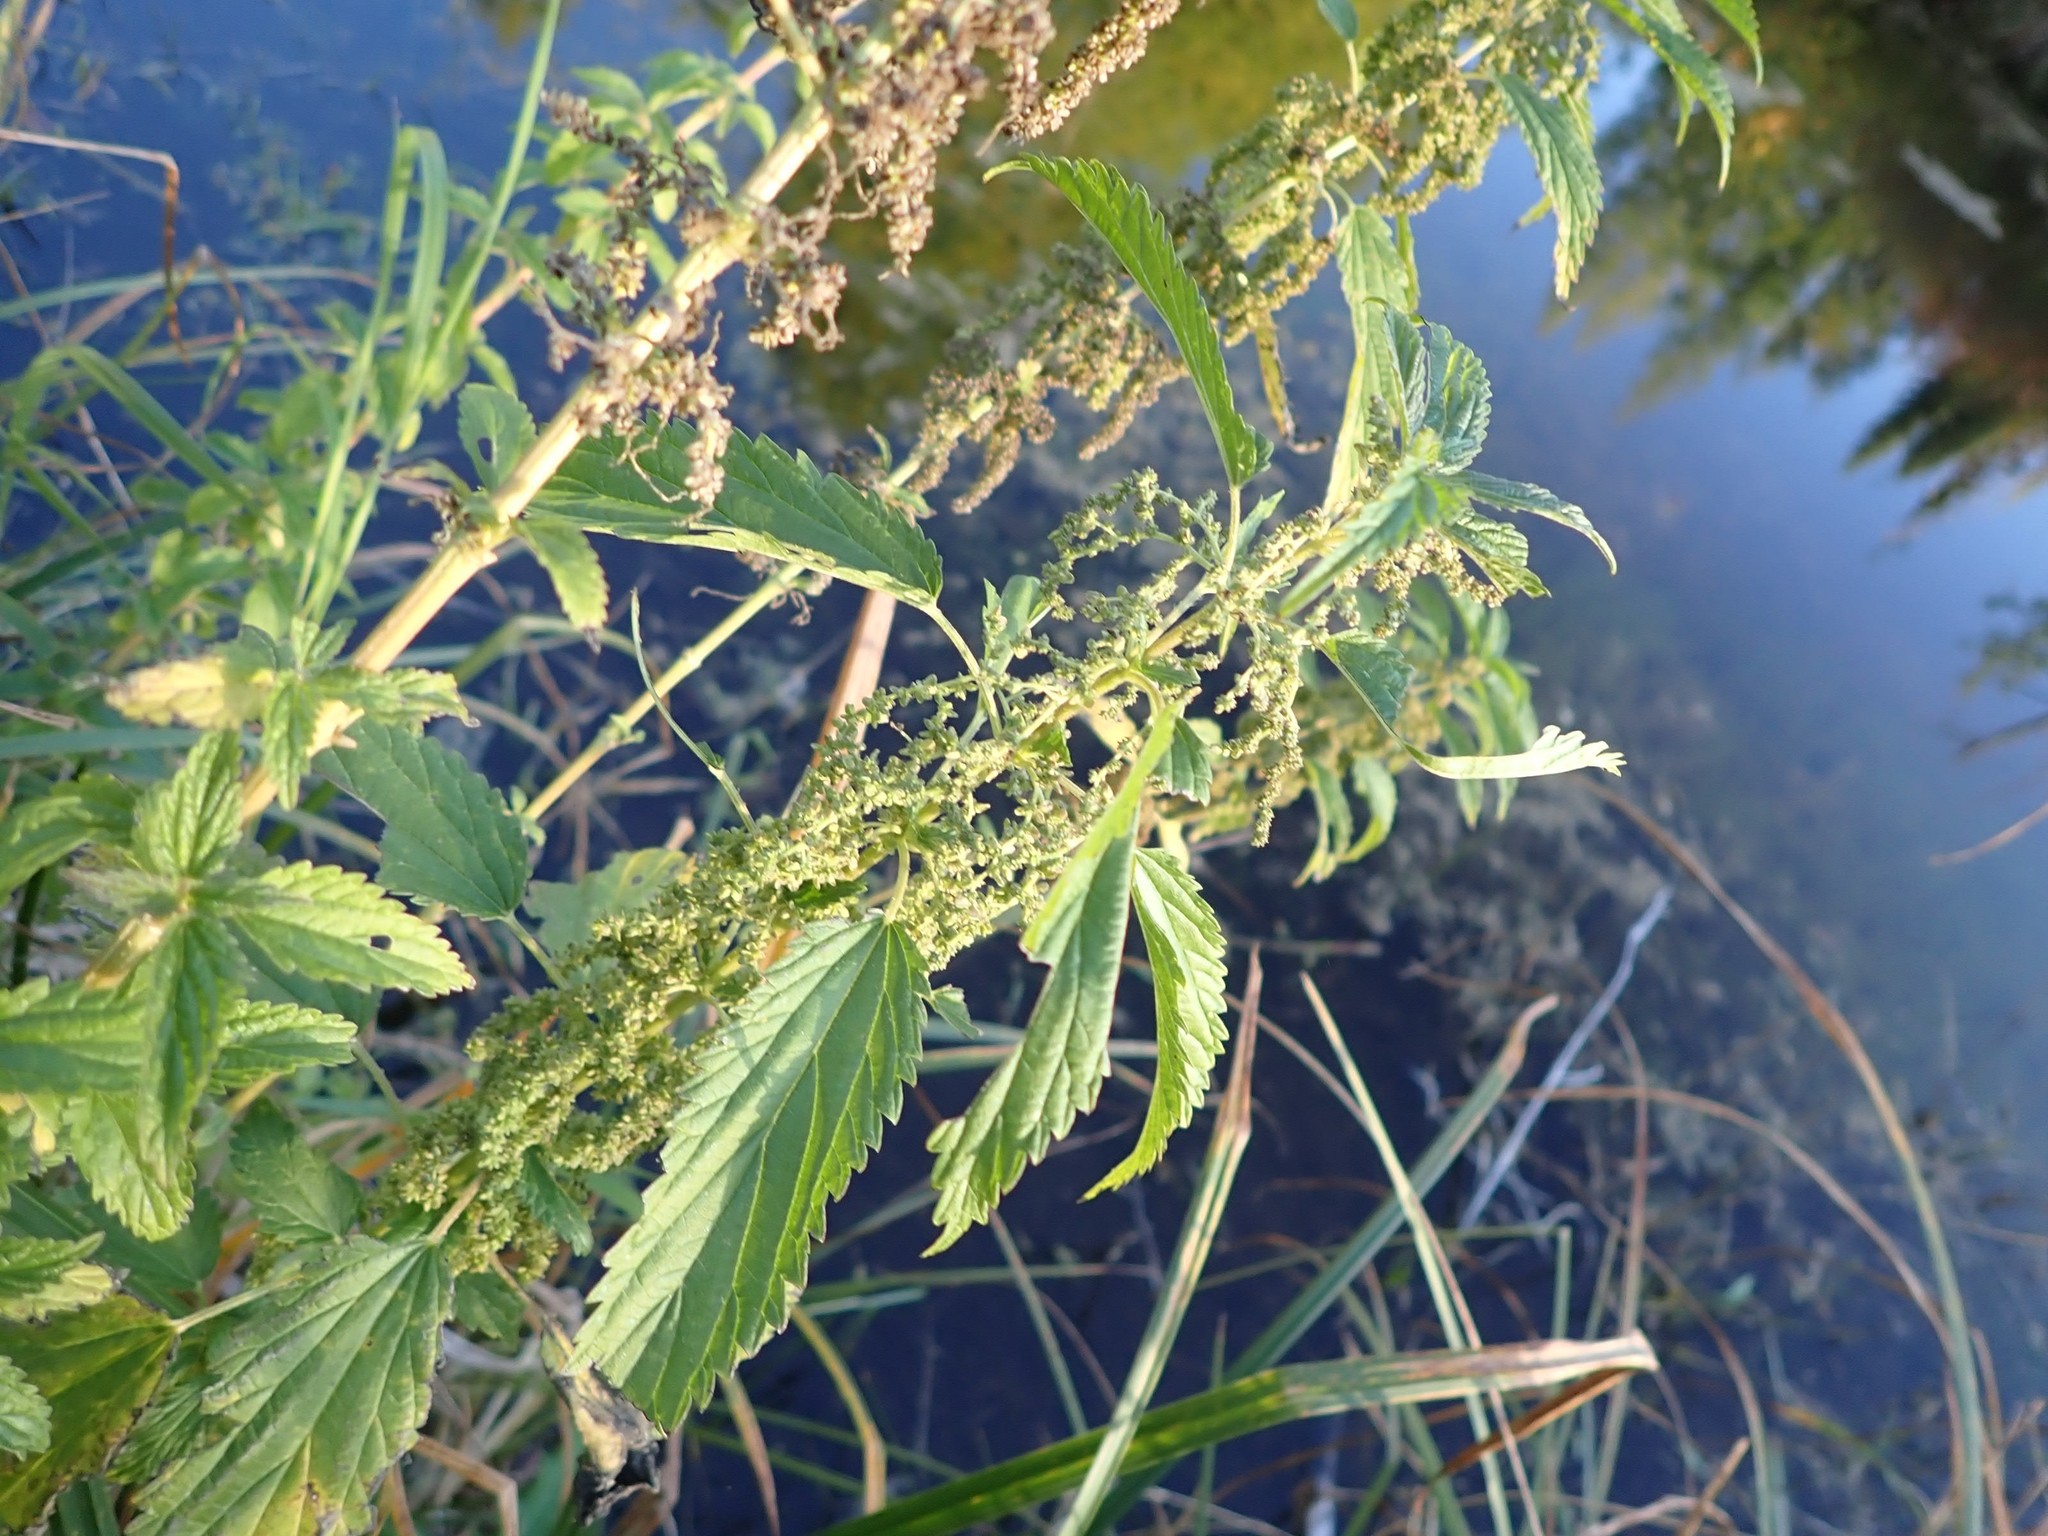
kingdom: Plantae
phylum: Tracheophyta
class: Magnoliopsida
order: Rosales
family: Urticaceae
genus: Urtica
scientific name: Urtica gracilis
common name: Slender stinging nettle
